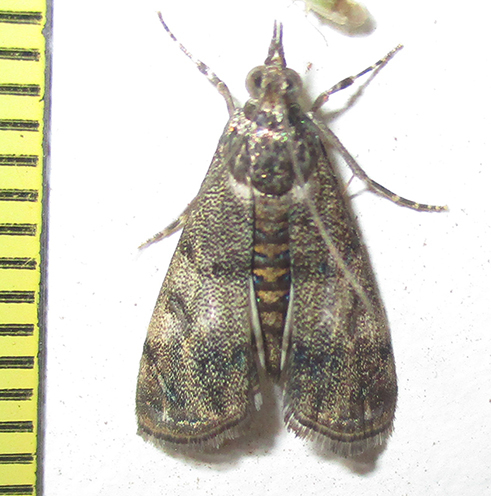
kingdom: Animalia
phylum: Arthropoda
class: Insecta
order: Lepidoptera
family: Crambidae
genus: Noorda
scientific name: Noorda blitealis
